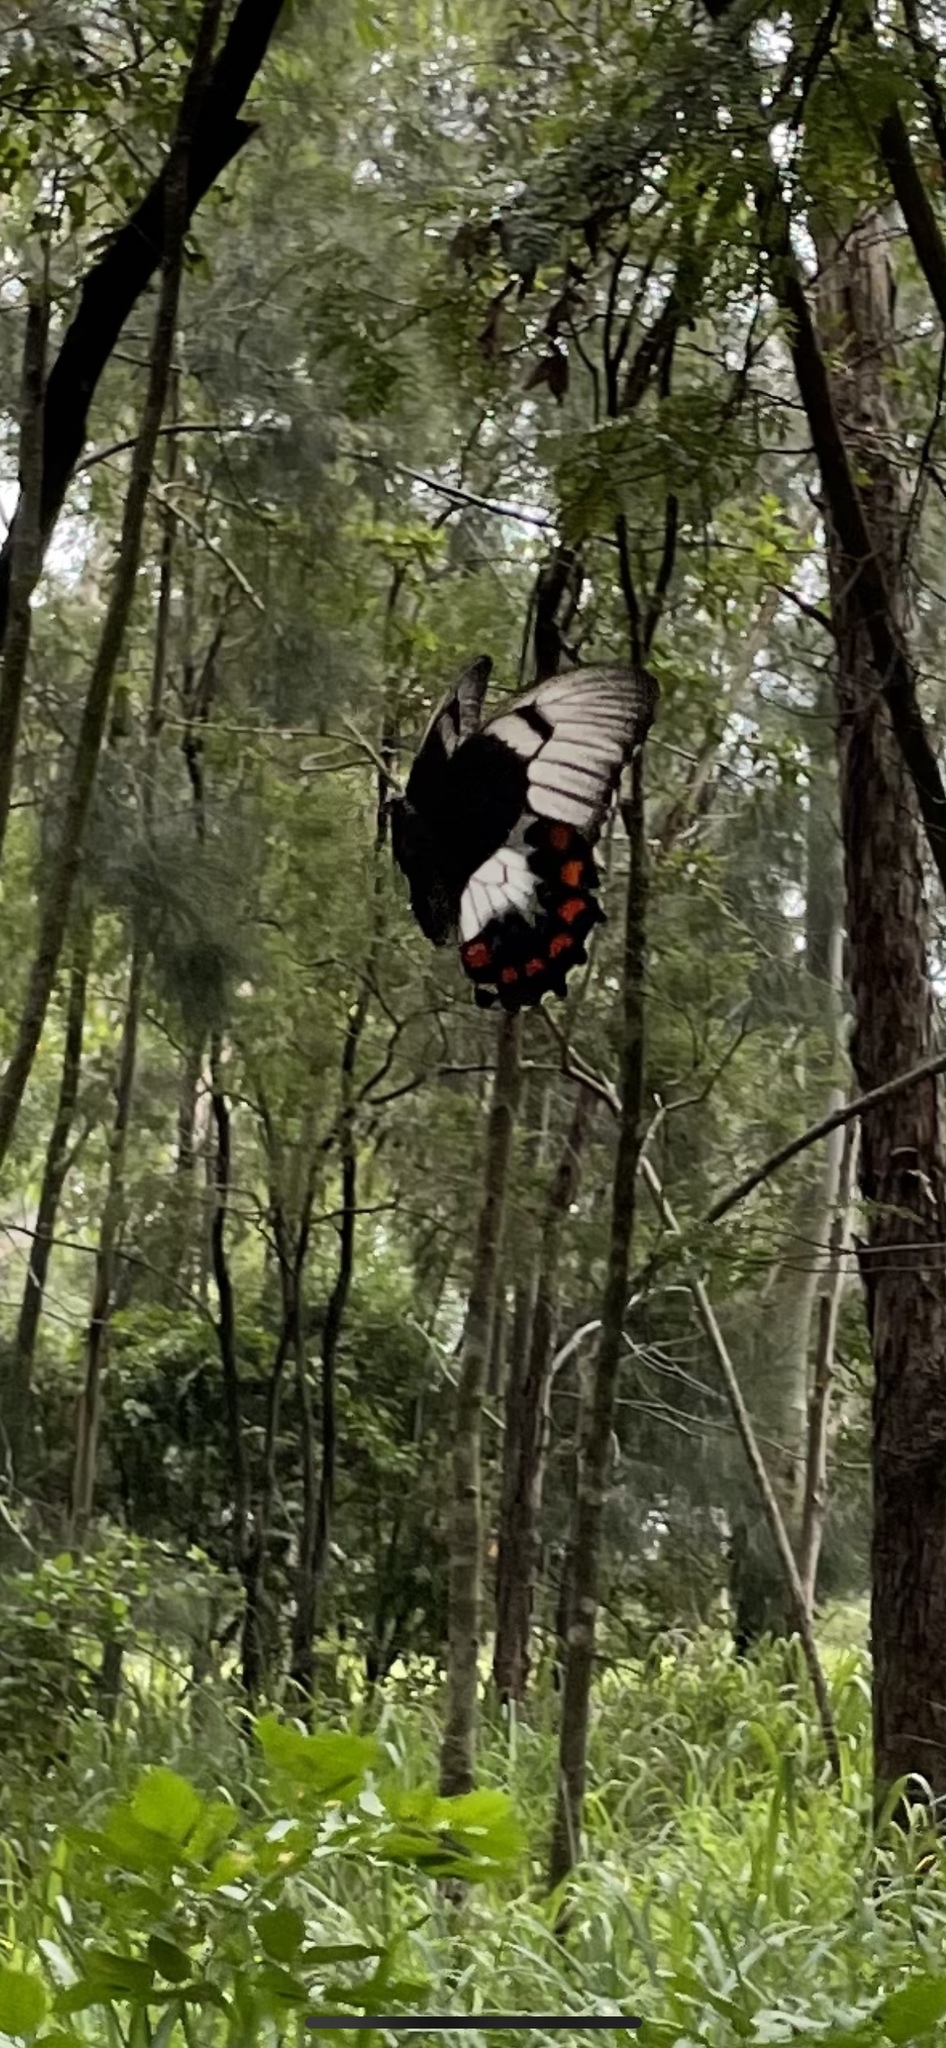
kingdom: Animalia
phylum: Arthropoda
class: Insecta
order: Lepidoptera
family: Papilionidae
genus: Papilio
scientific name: Papilio aegeus
